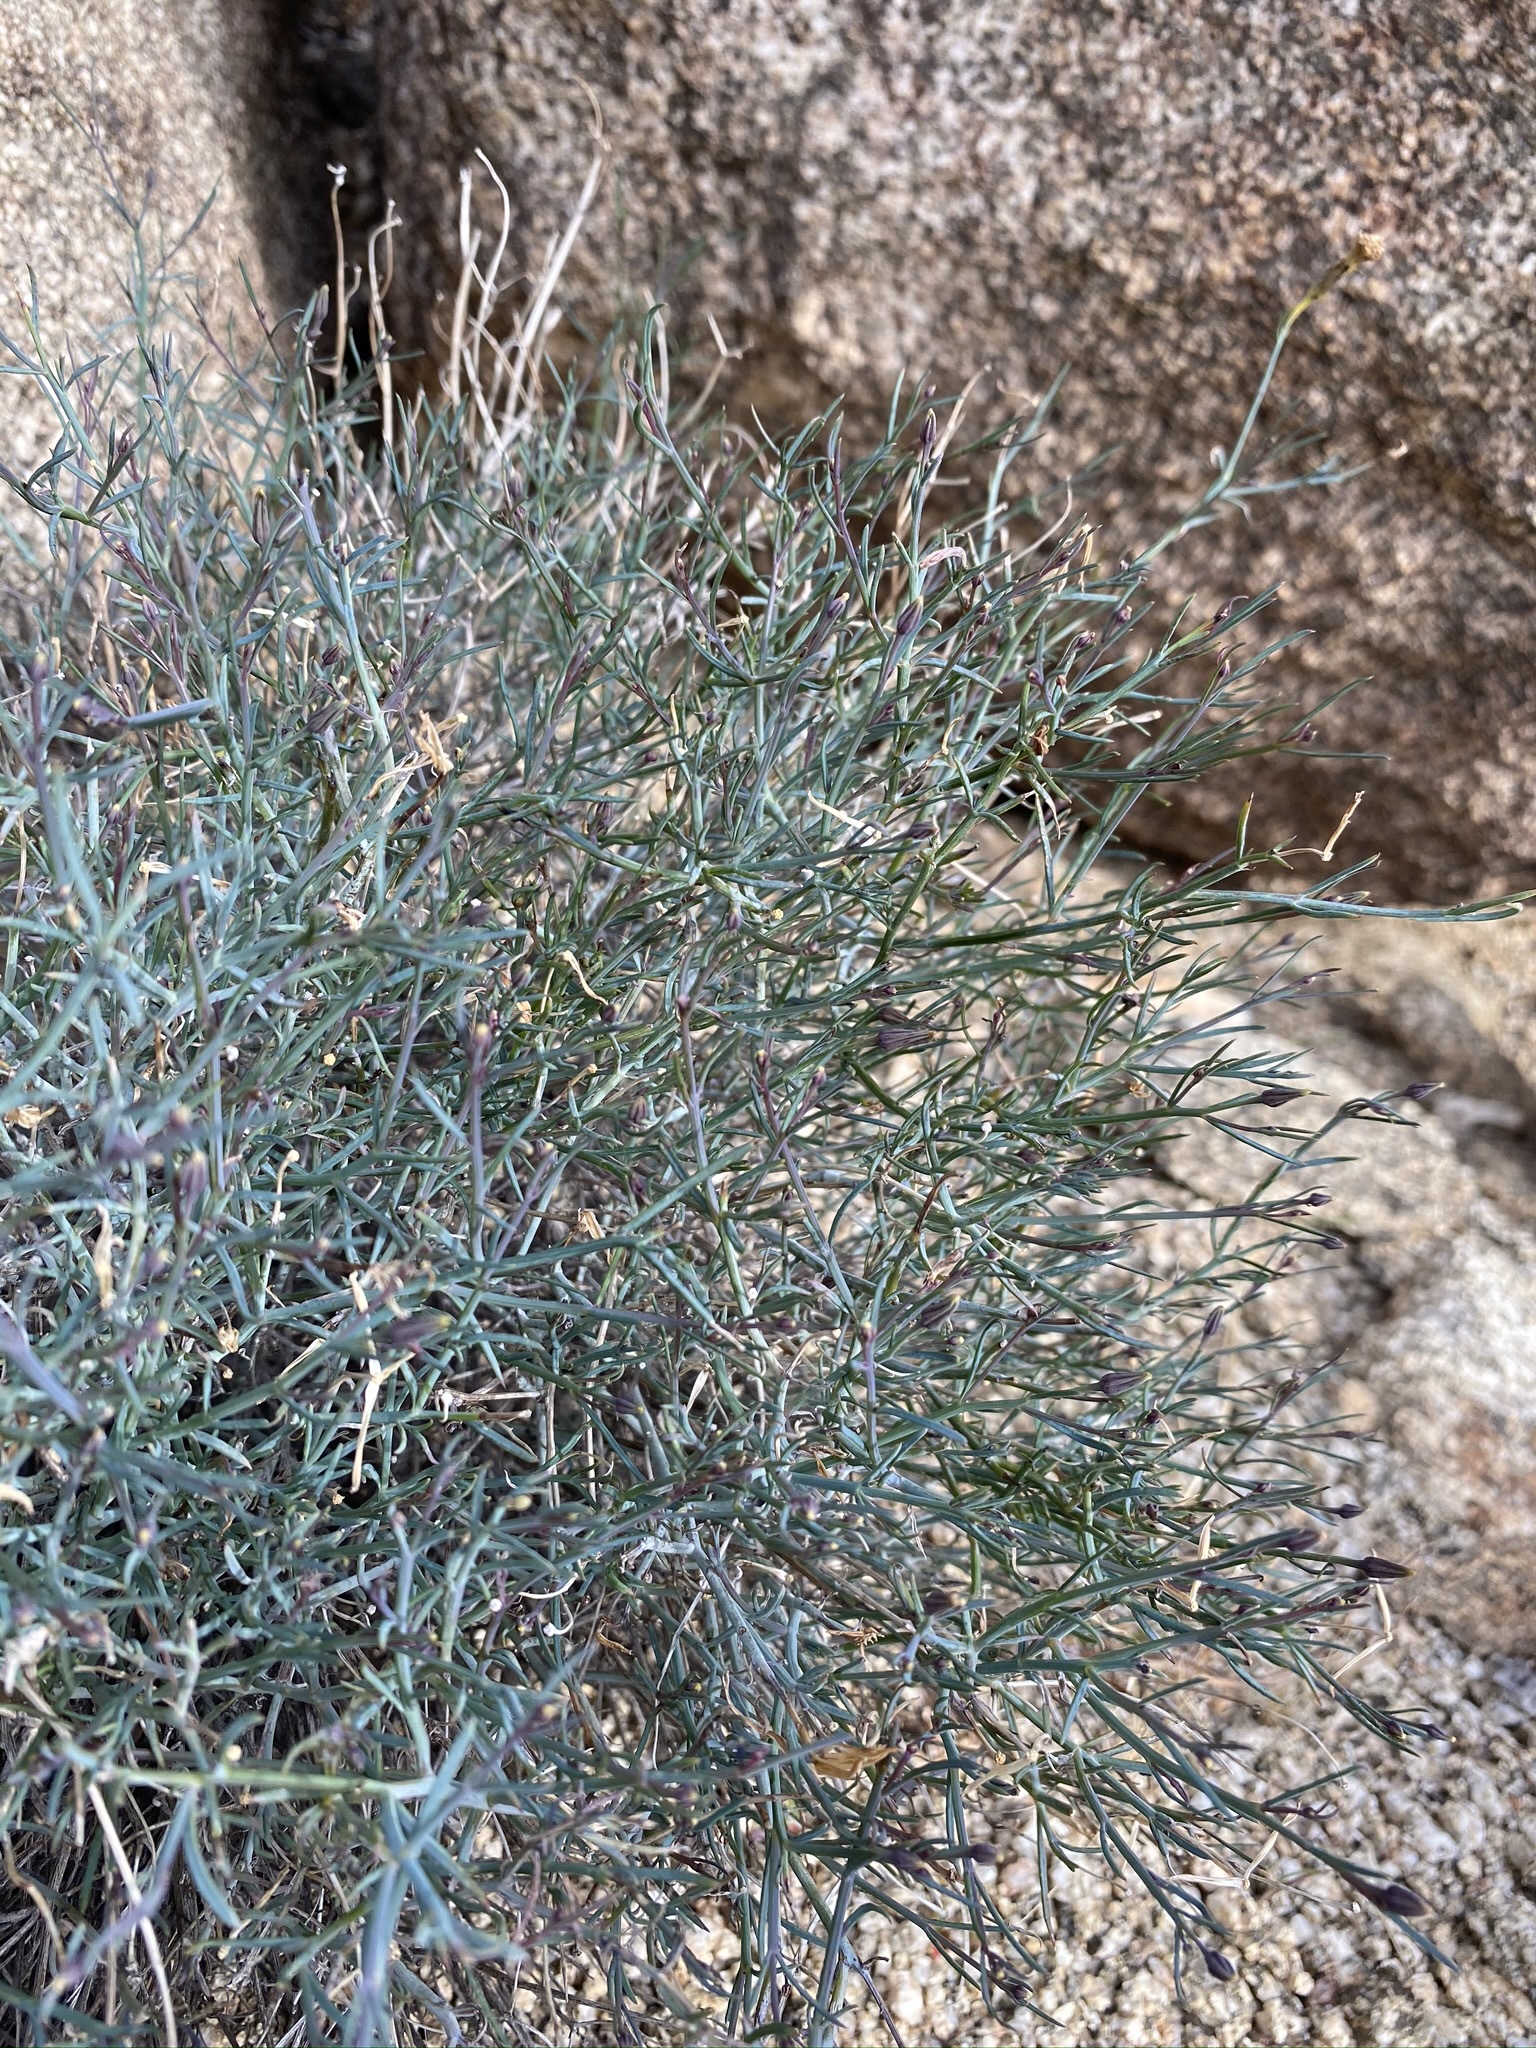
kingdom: Plantae
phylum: Tracheophyta
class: Magnoliopsida
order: Asterales
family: Asteraceae
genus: Porophyllum
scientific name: Porophyllum gracile
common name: Odora
